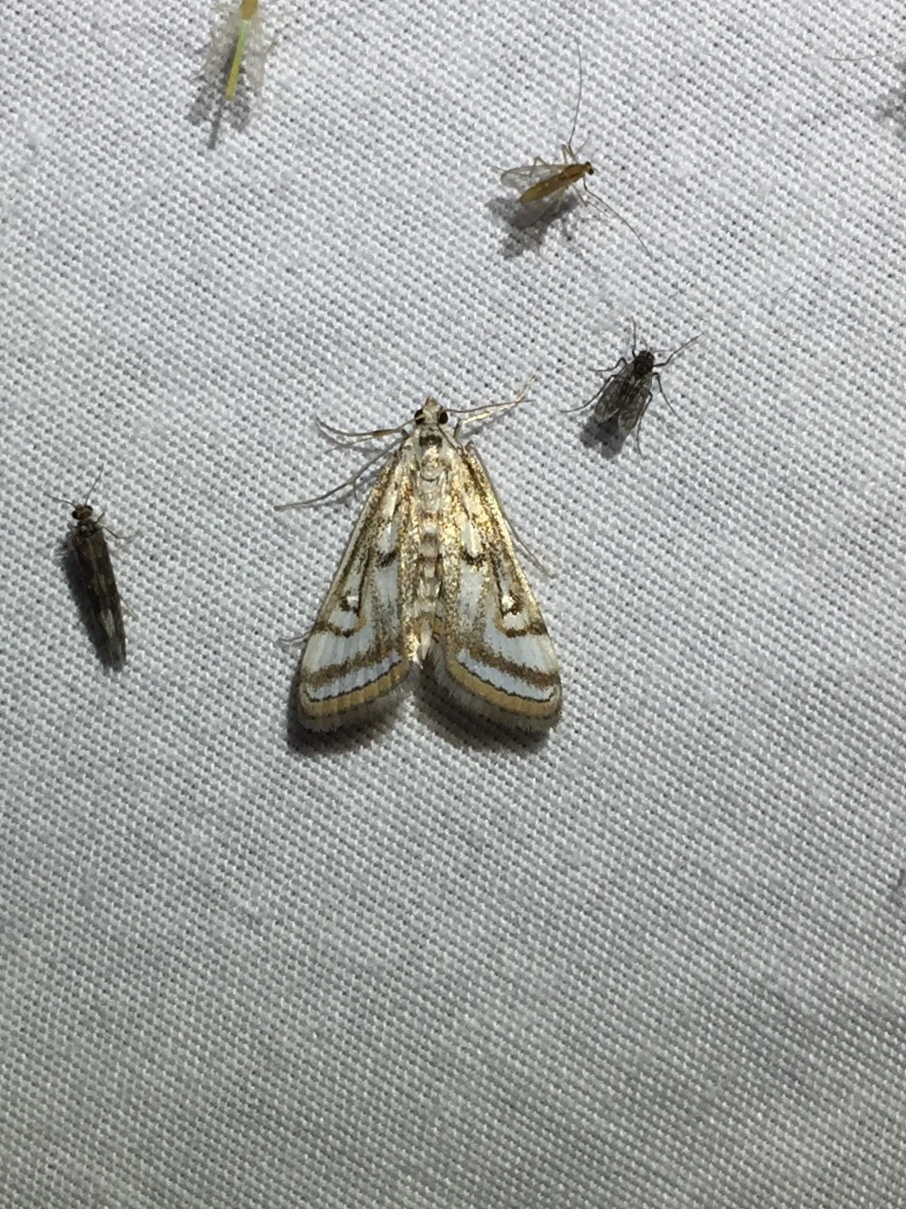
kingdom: Animalia
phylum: Arthropoda
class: Insecta
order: Lepidoptera
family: Crambidae
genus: Parapoynx
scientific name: Parapoynx badiusalis
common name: Chestnut-marked pondweed moth
